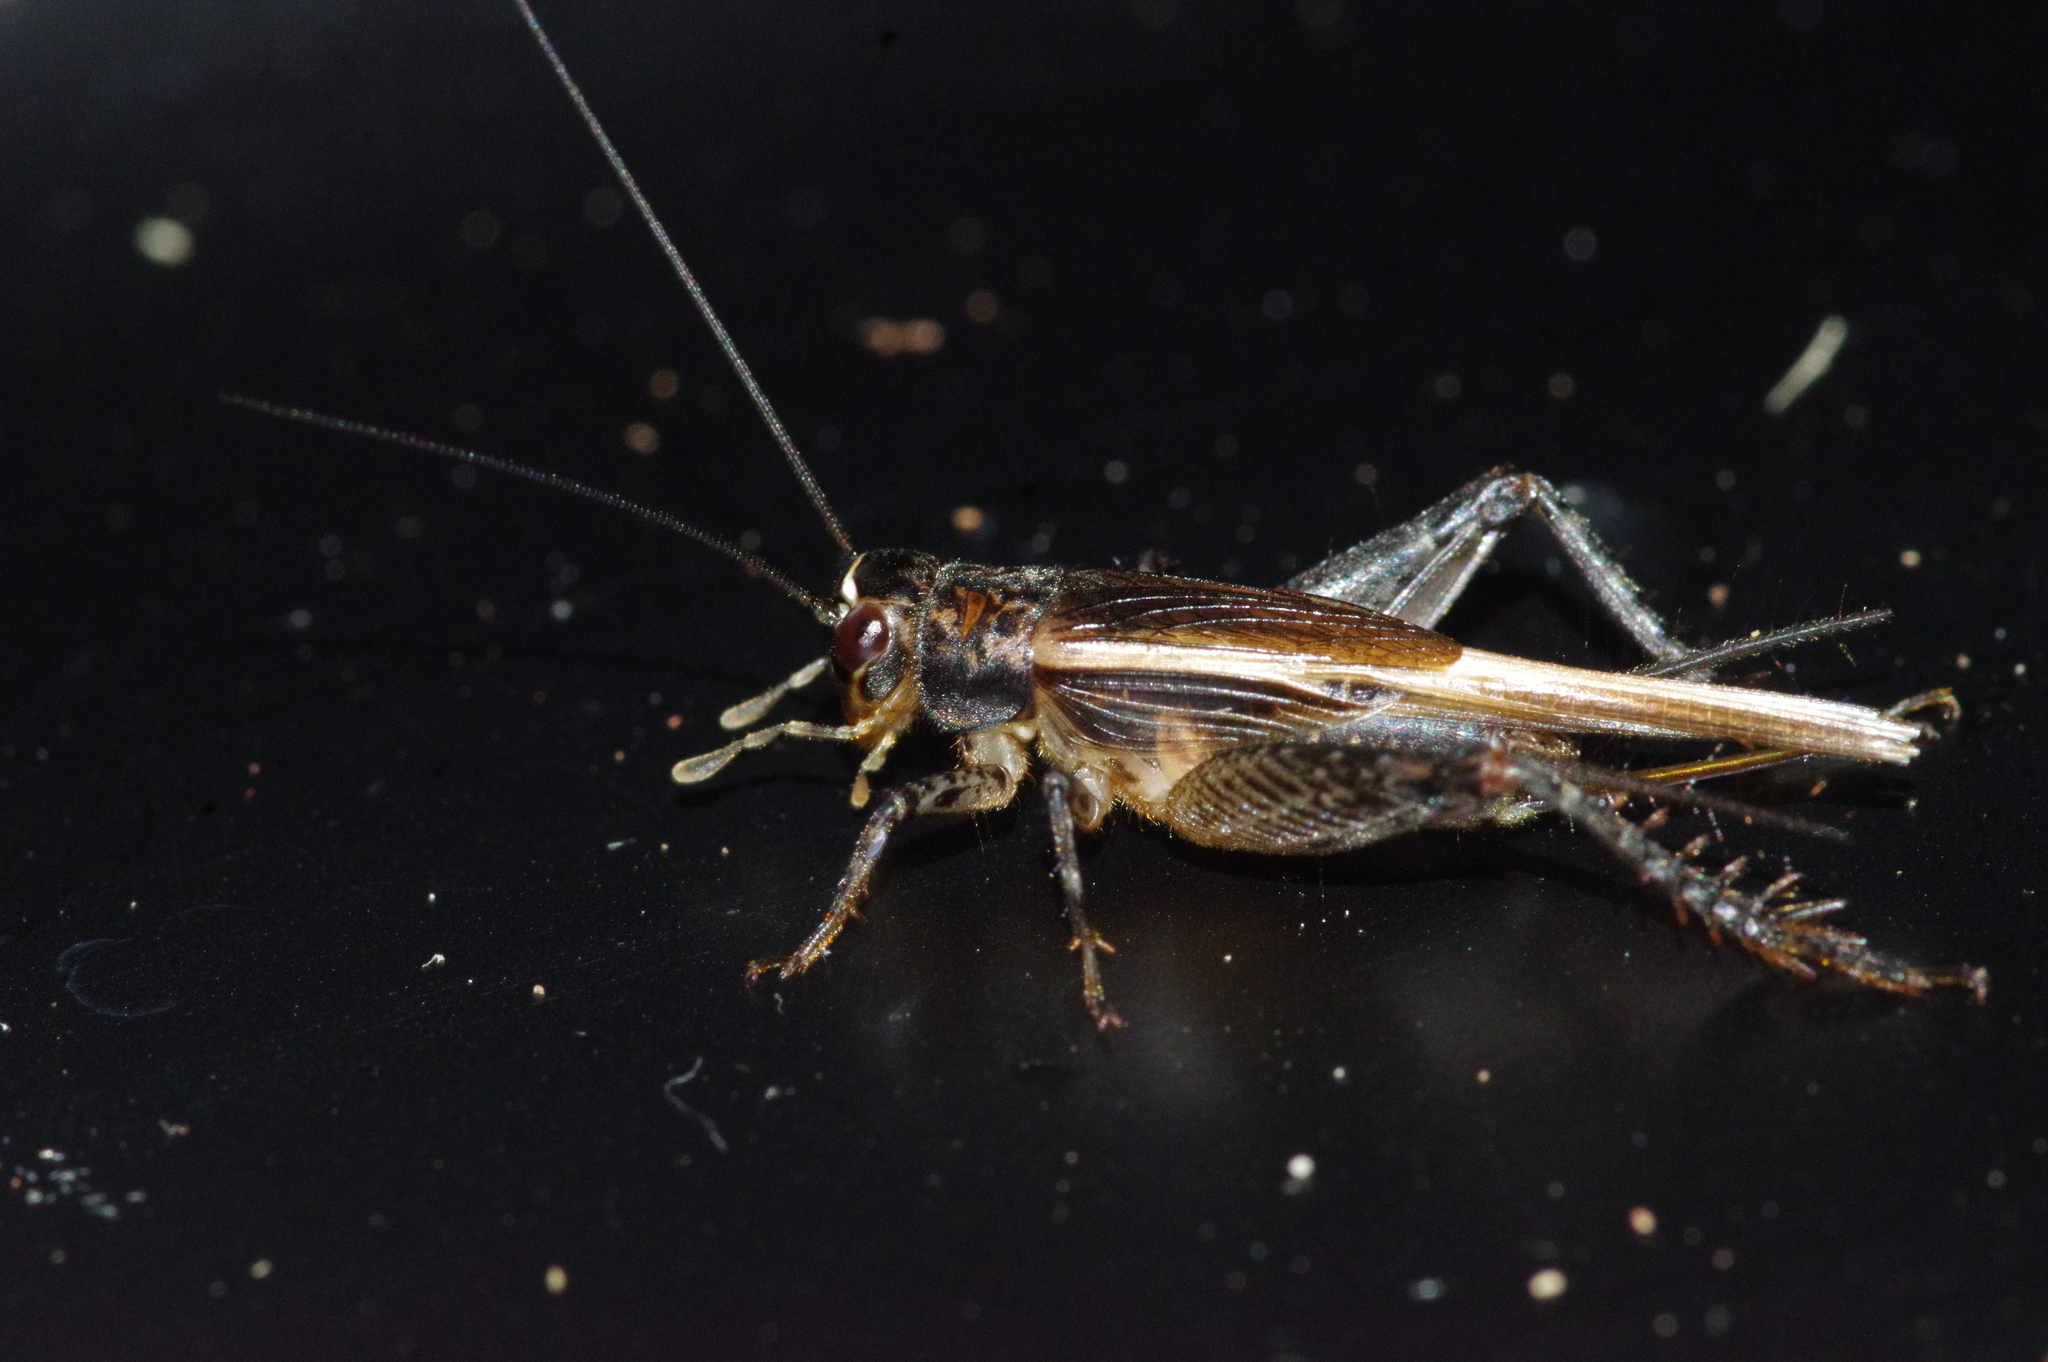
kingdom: Animalia
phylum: Arthropoda
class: Insecta
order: Orthoptera
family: Gryllidae
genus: Loxoblemmus
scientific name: Loxoblemmus equestris
